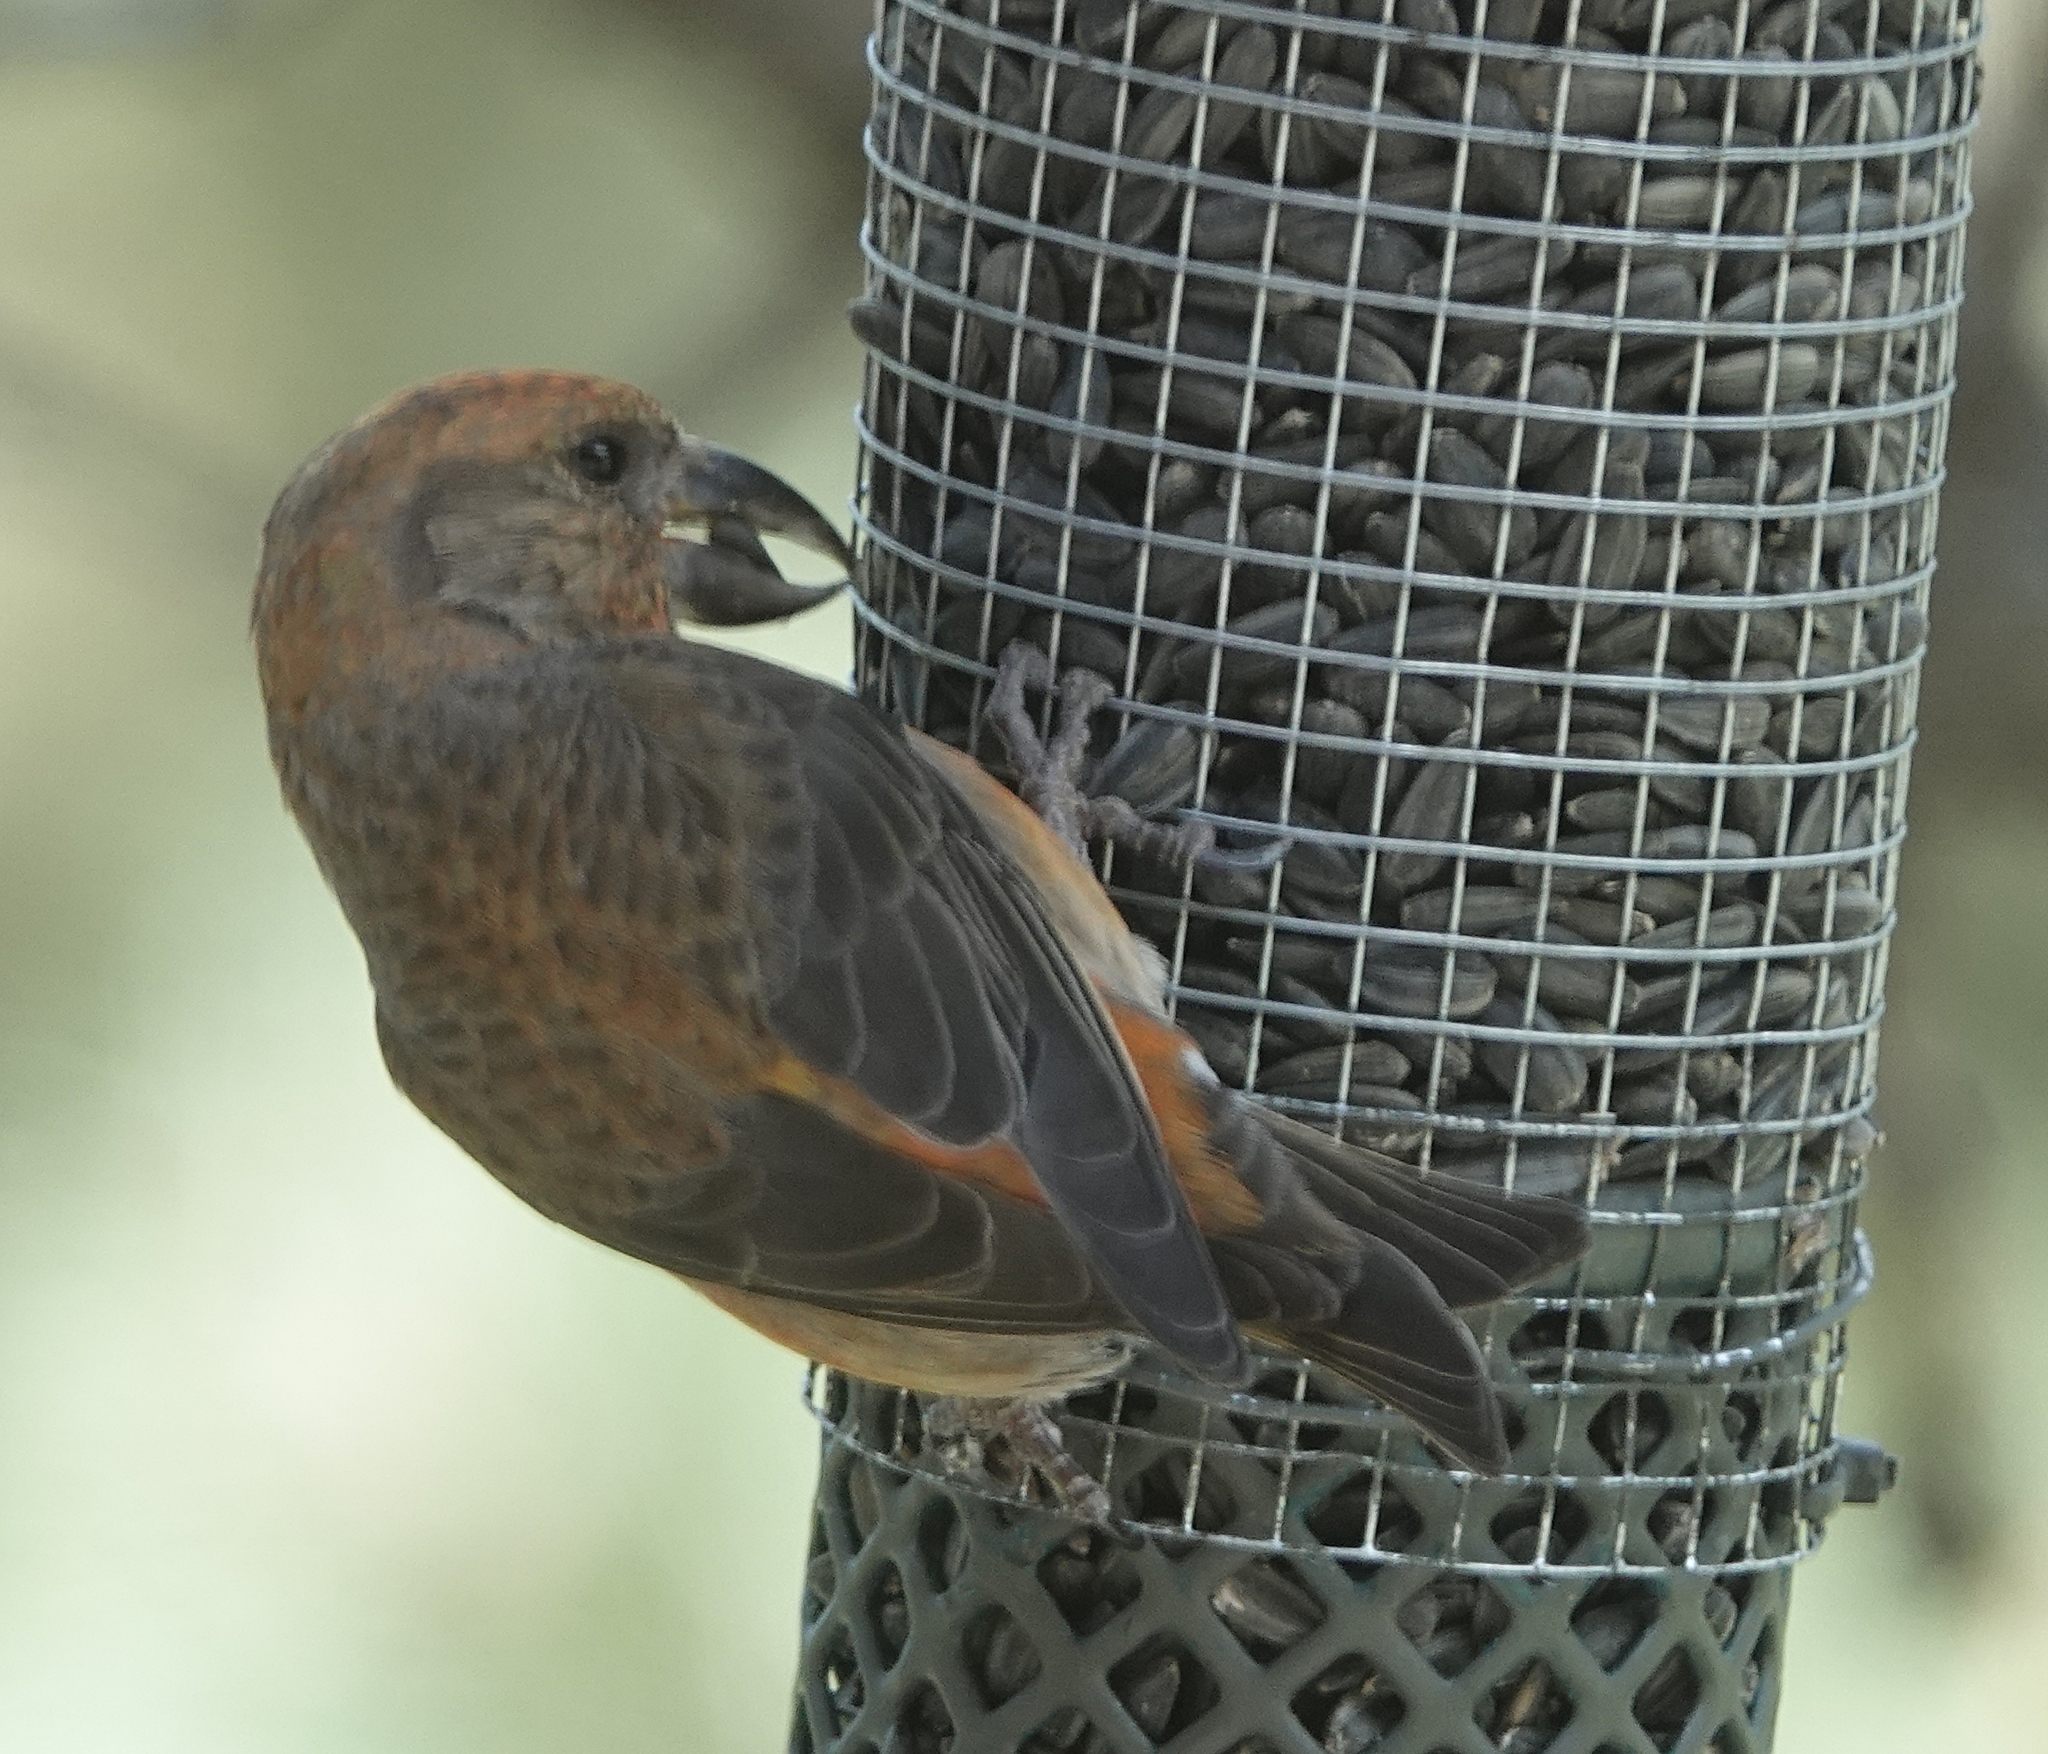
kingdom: Animalia
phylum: Chordata
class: Aves
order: Passeriformes
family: Fringillidae
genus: Loxia
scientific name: Loxia curvirostra
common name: Red crossbill
